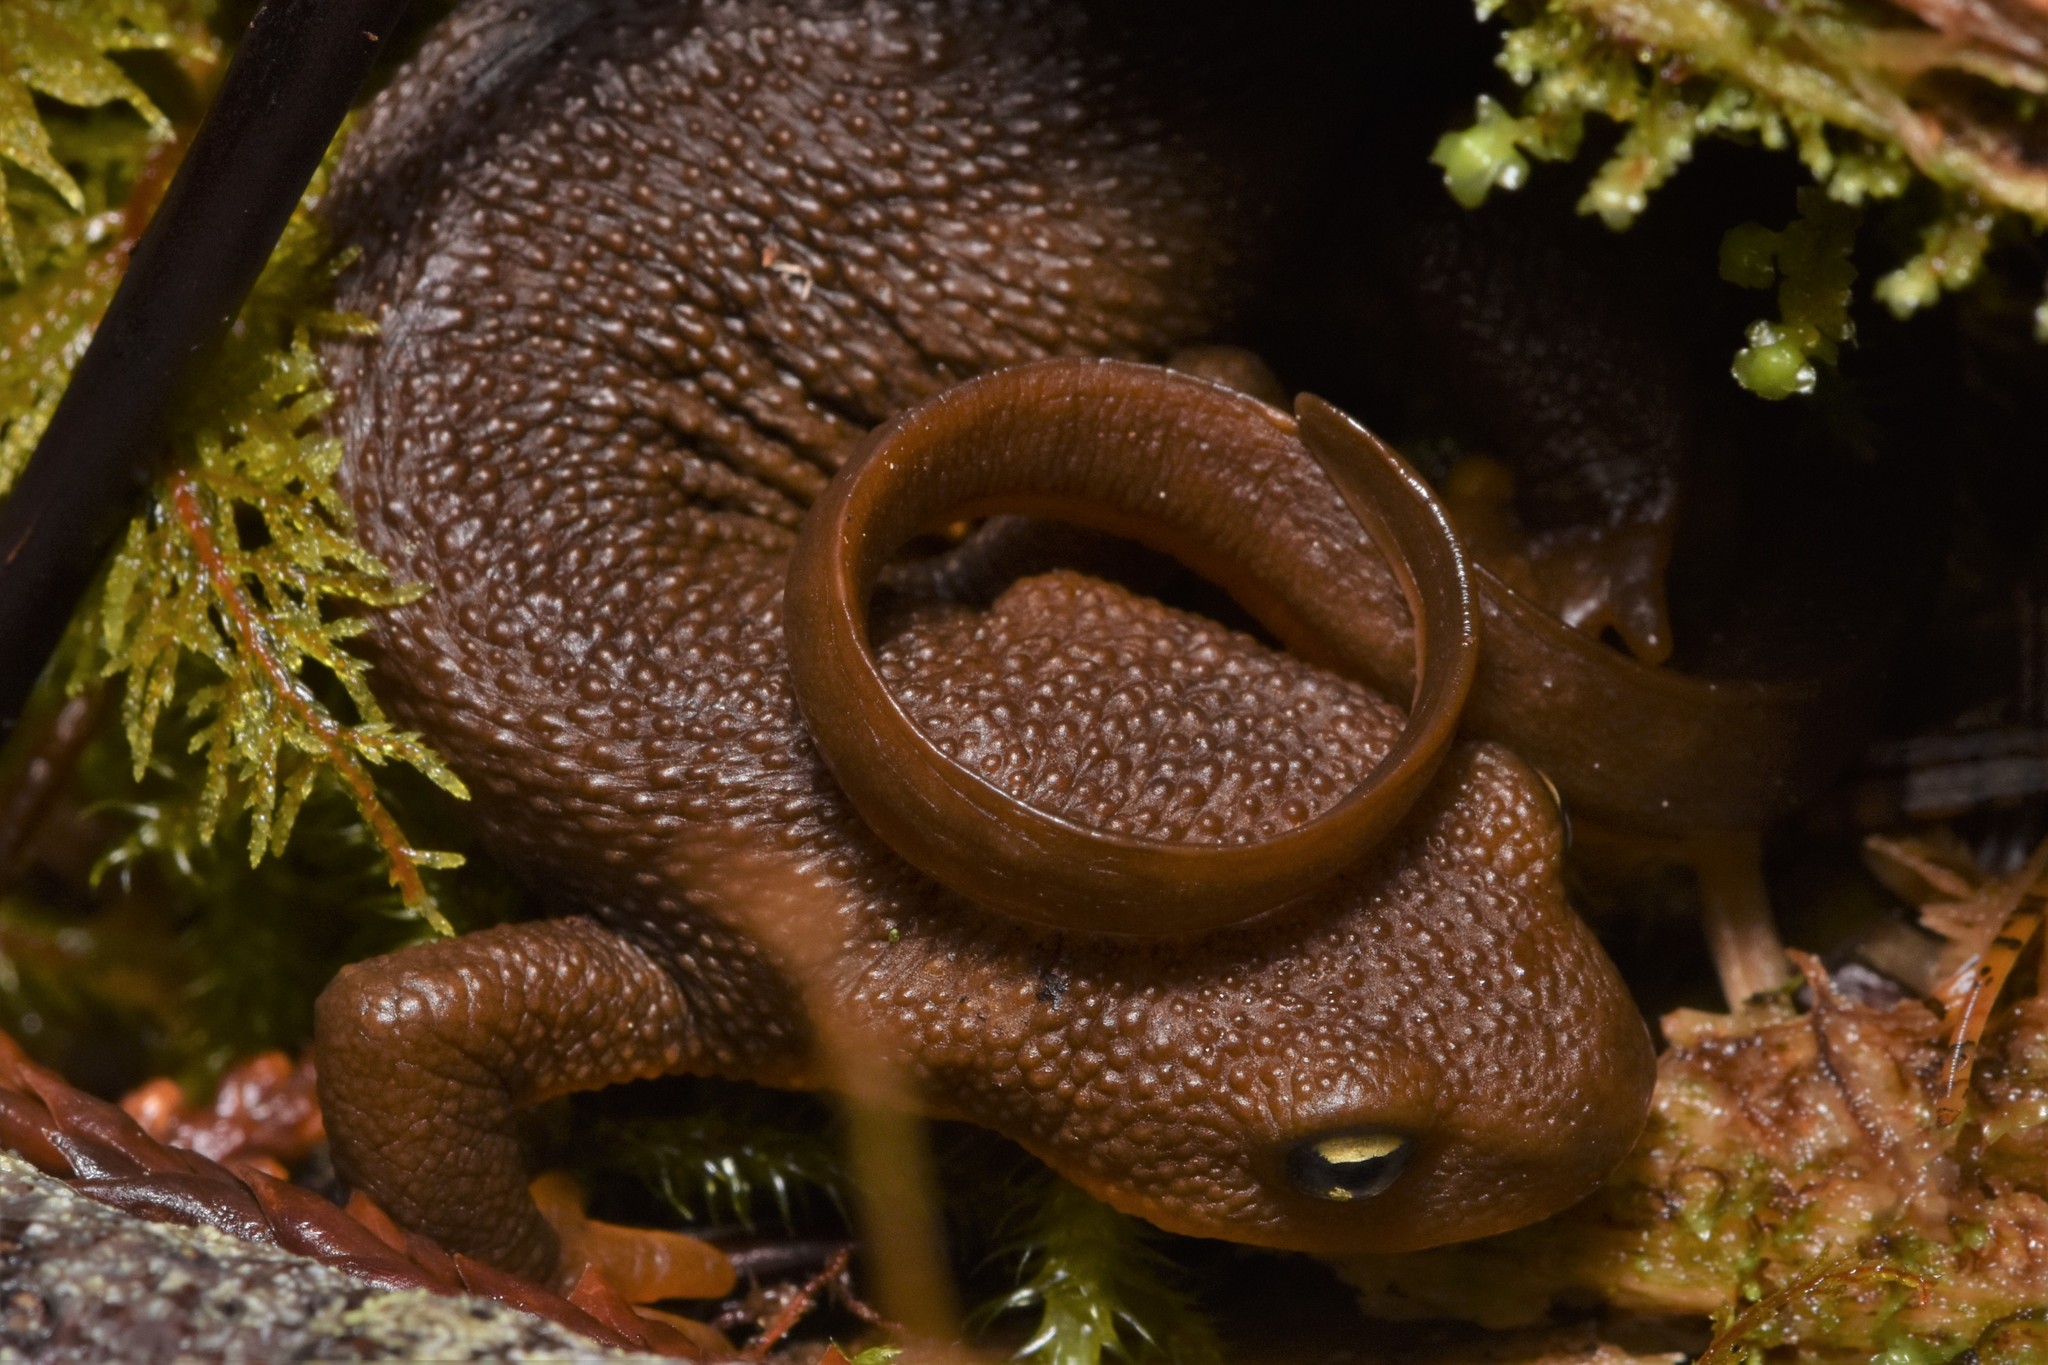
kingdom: Animalia
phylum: Chordata
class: Amphibia
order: Caudata
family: Salamandridae
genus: Taricha
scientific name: Taricha granulosa
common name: Roughskin newt
